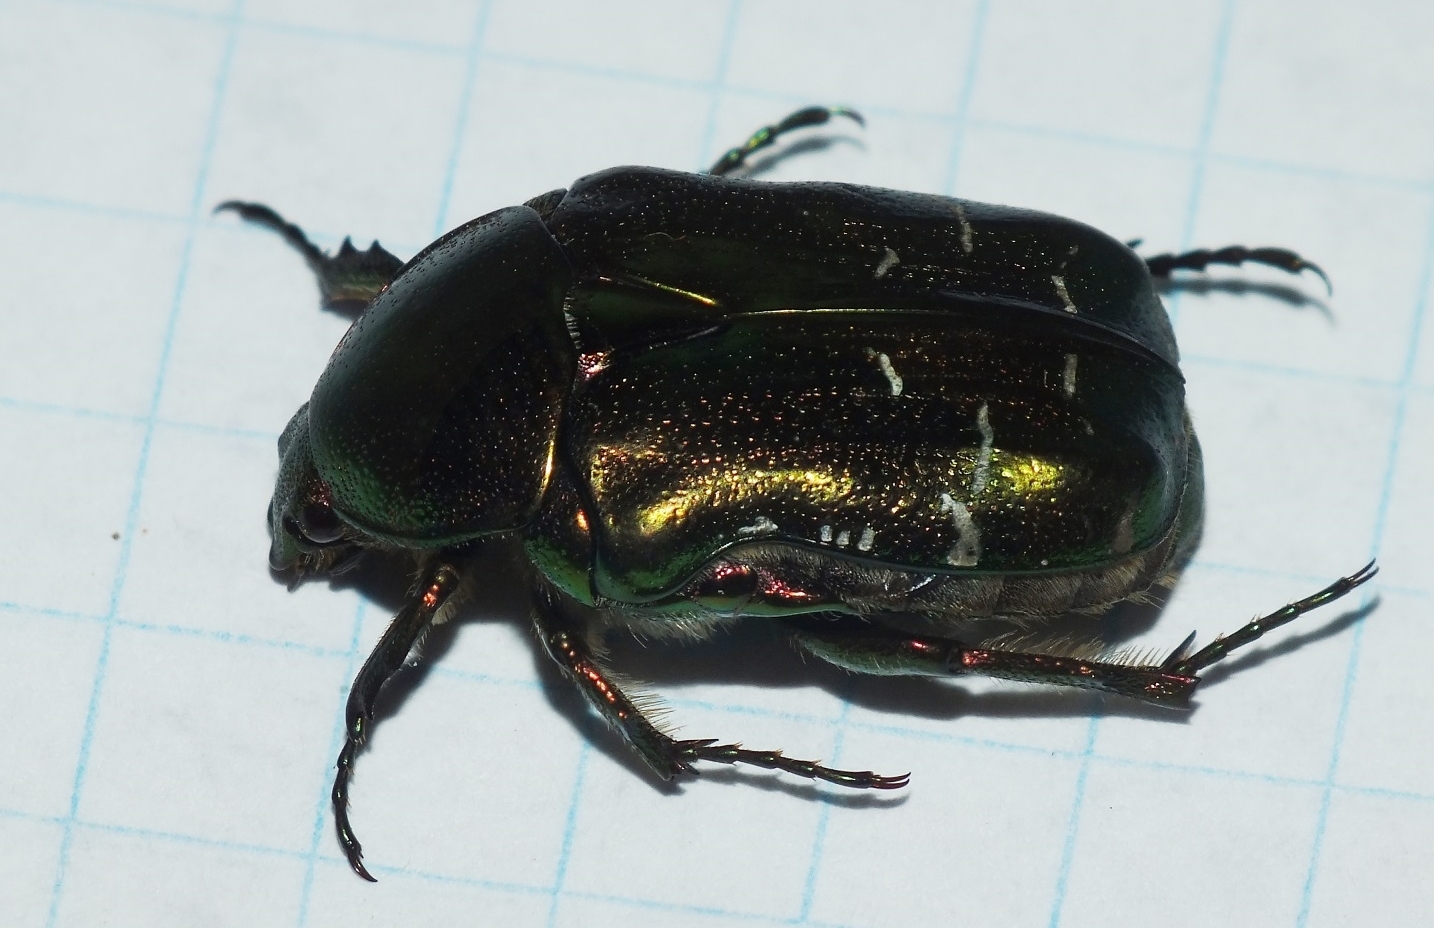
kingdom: Animalia
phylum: Arthropoda
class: Insecta
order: Coleoptera
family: Scarabaeidae
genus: Cetonia
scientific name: Cetonia aurata
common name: Rose chafer
